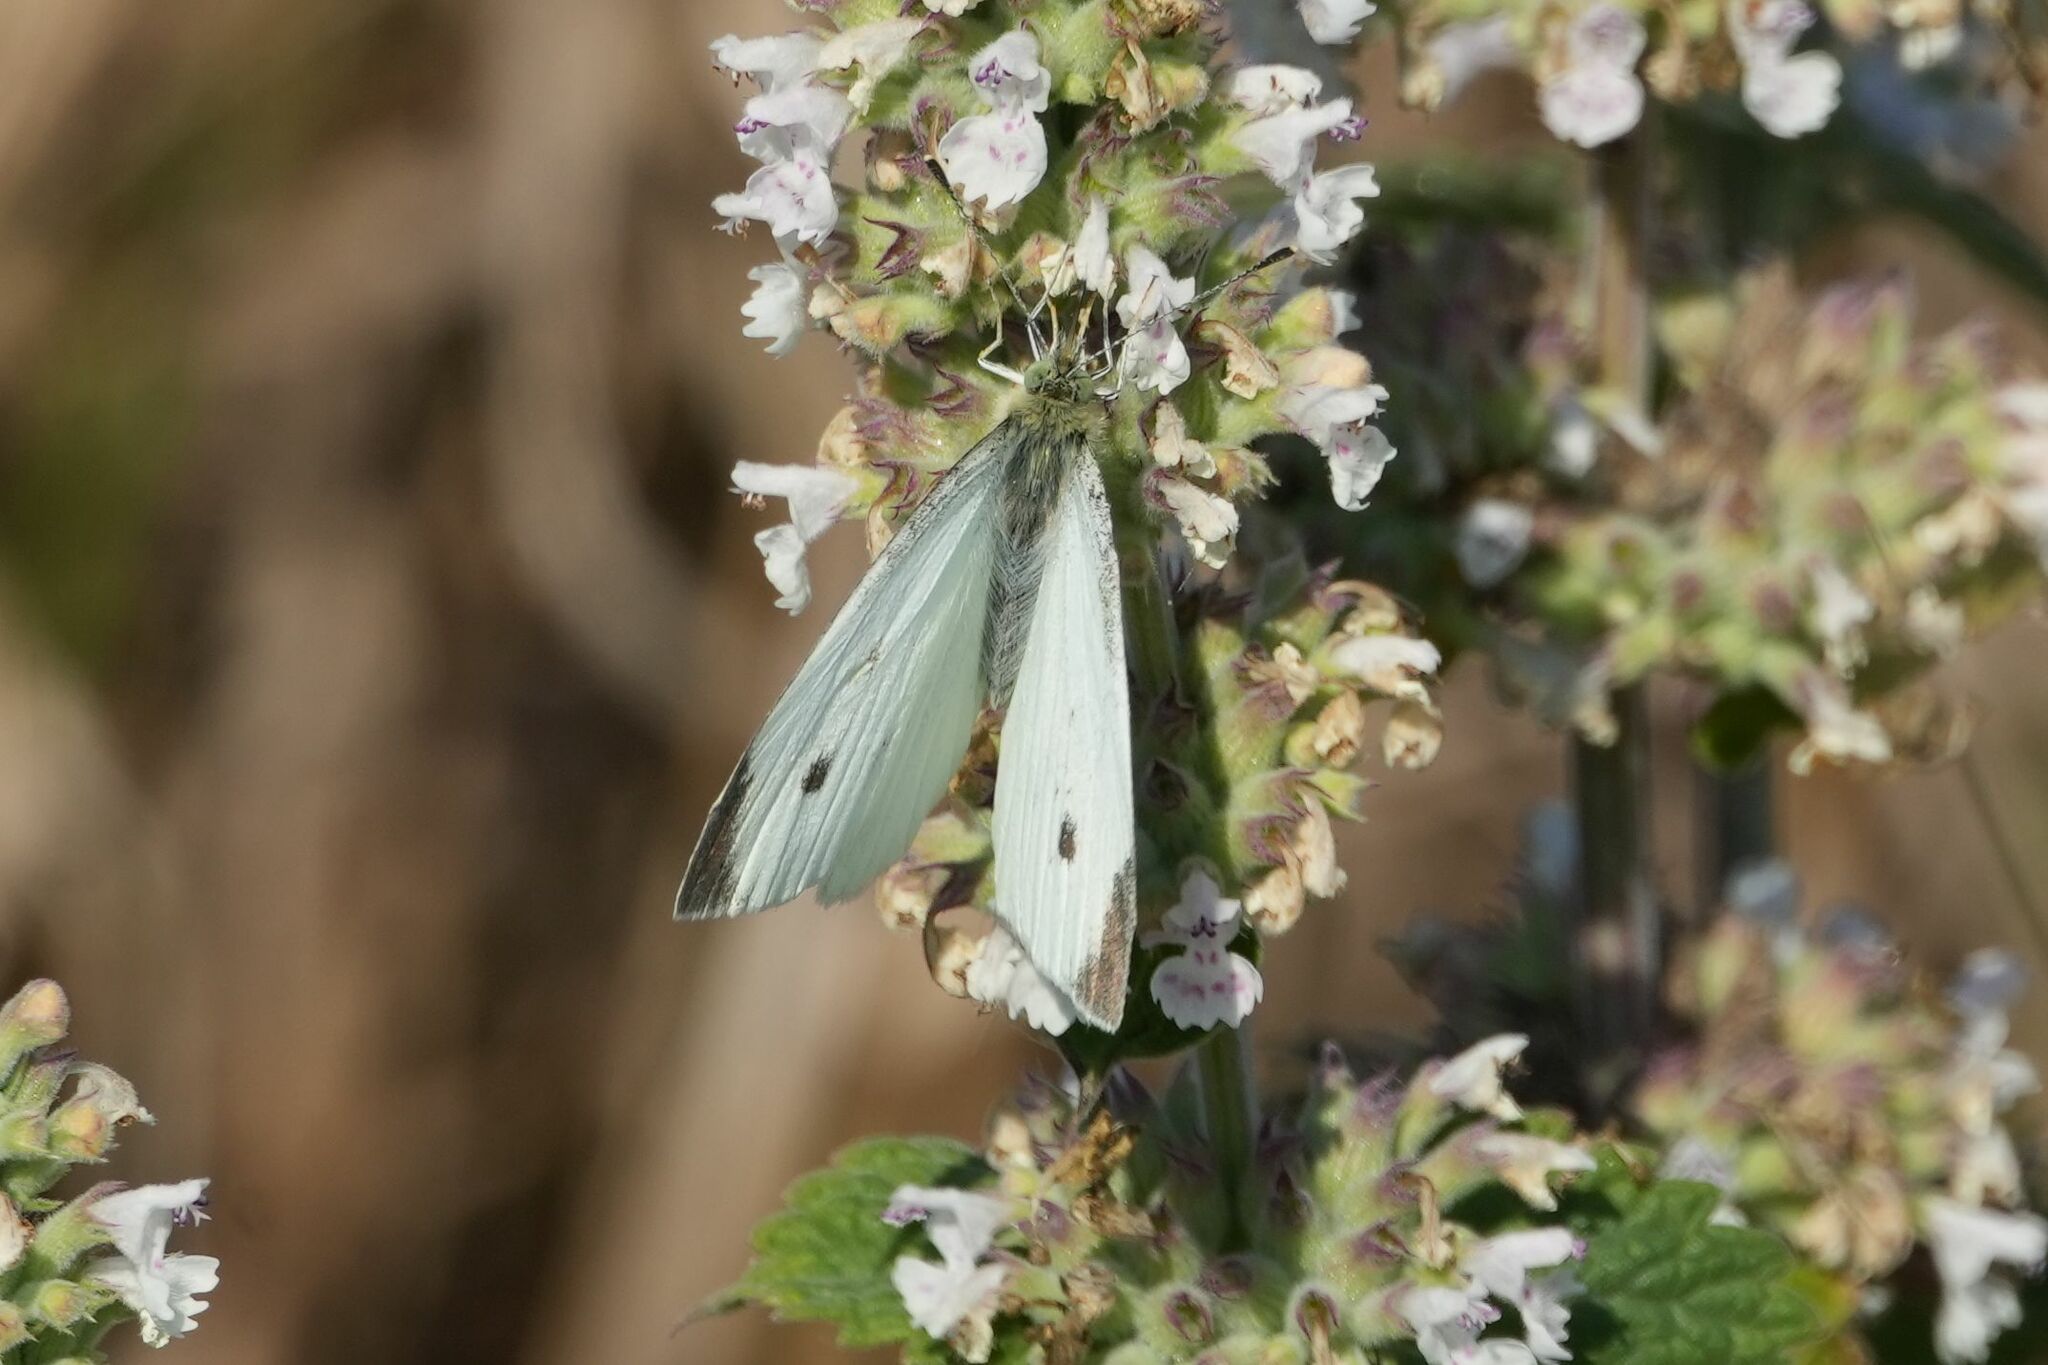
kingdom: Animalia
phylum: Arthropoda
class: Insecta
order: Lepidoptera
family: Pieridae
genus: Pieris
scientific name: Pieris rapae
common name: Small white
